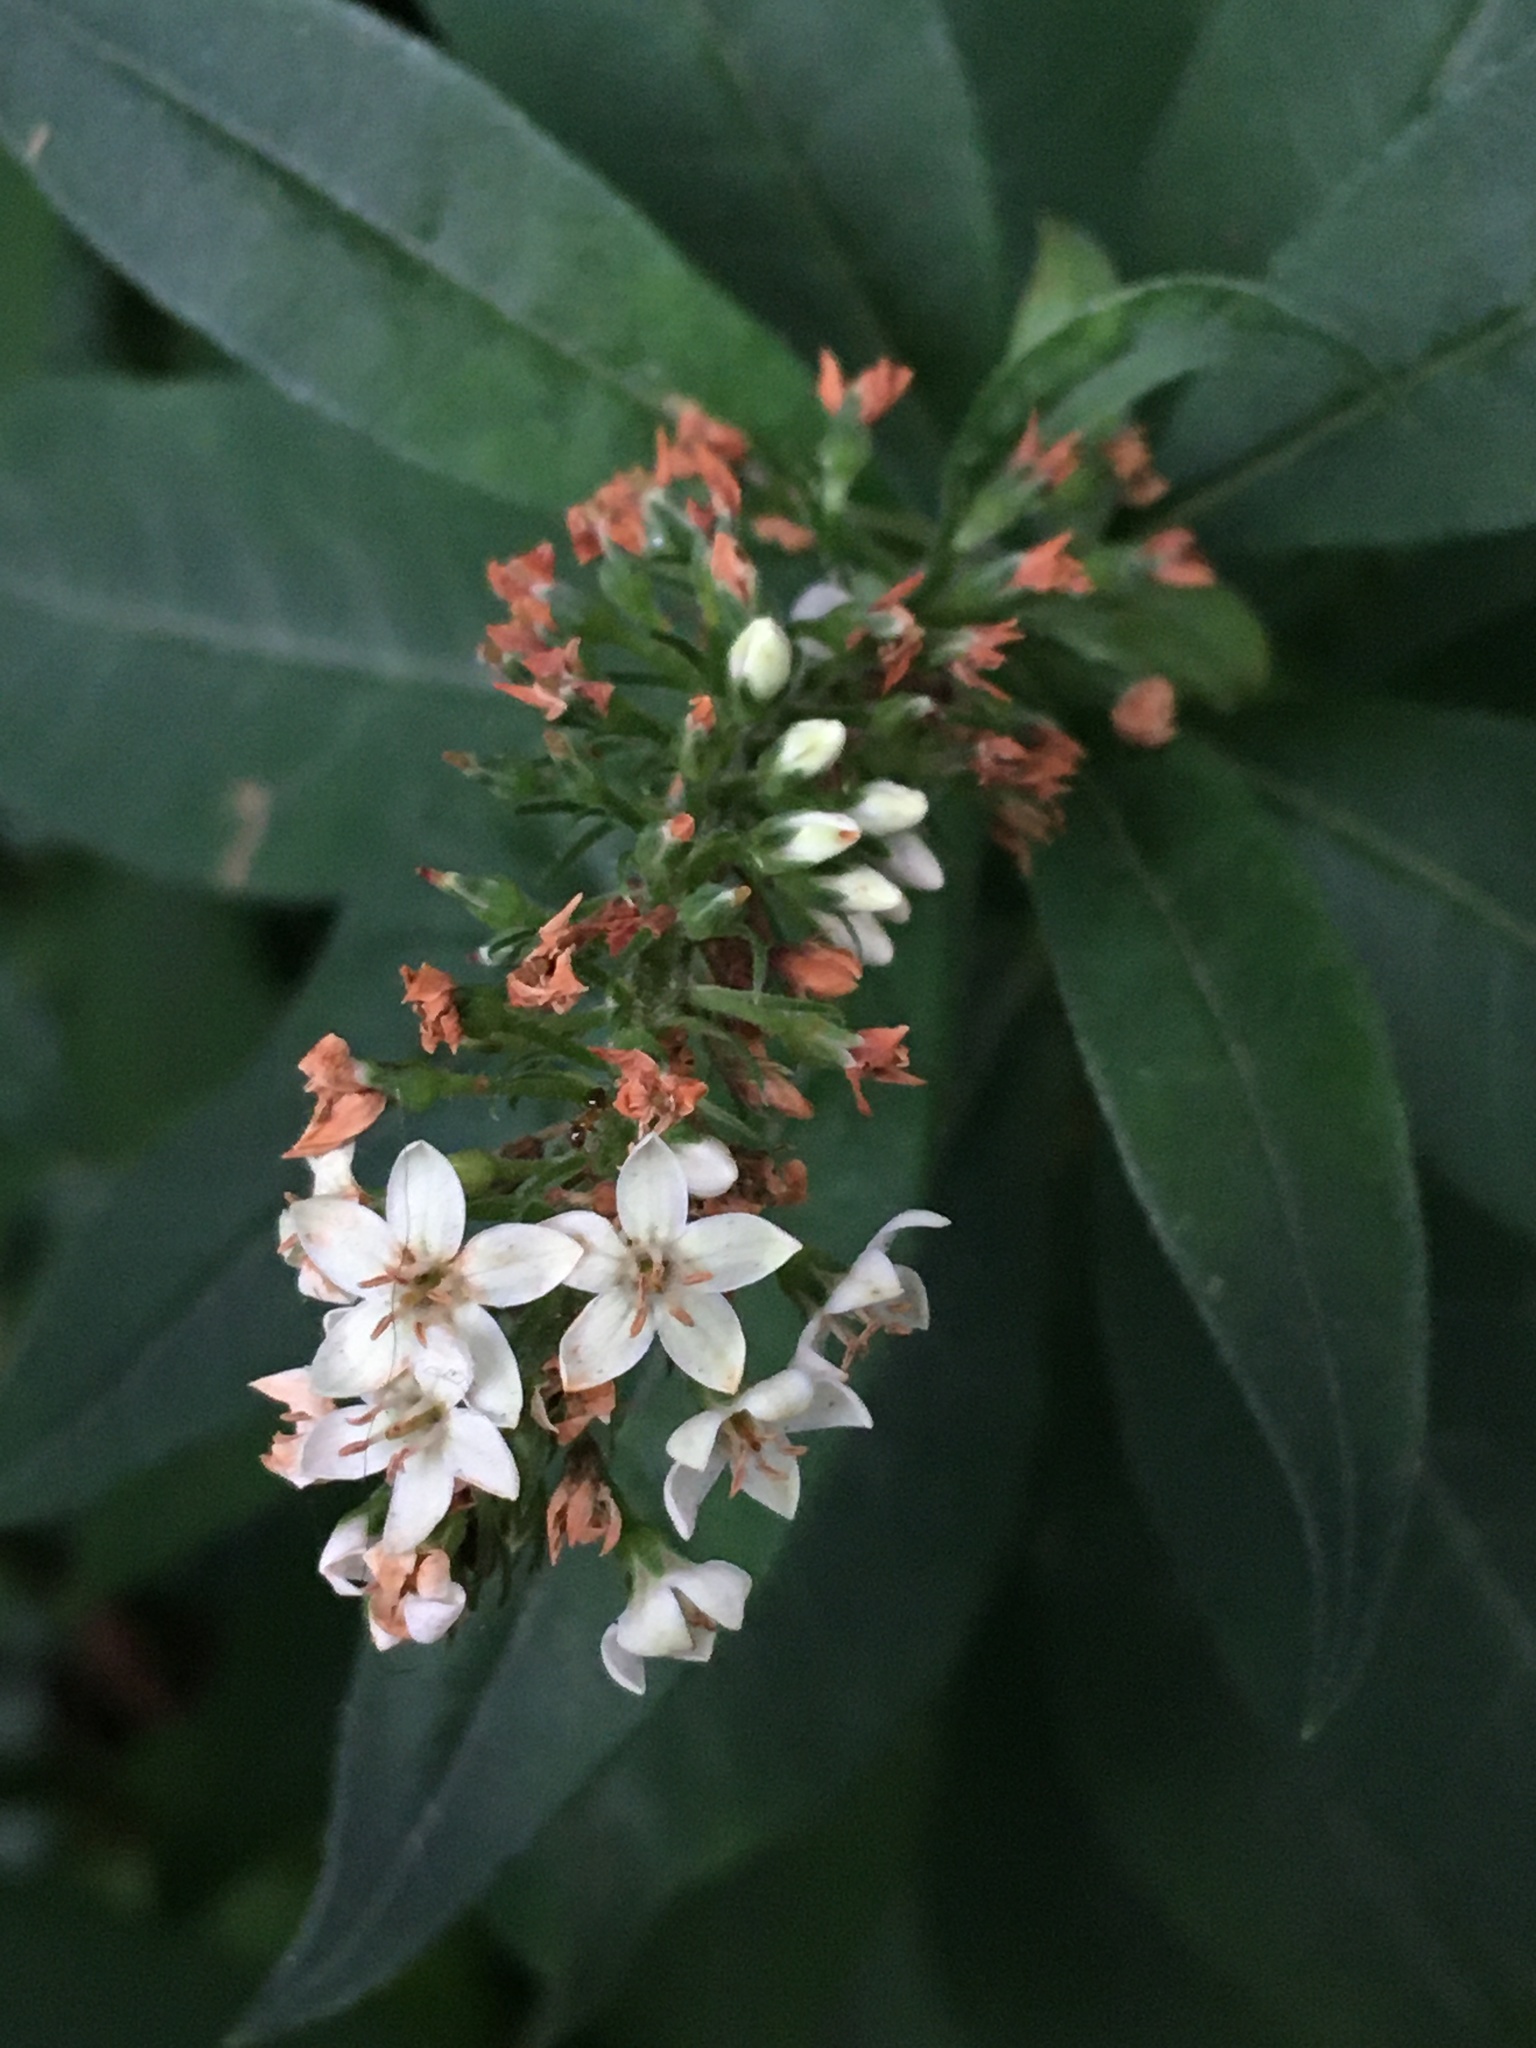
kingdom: Plantae
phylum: Tracheophyta
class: Magnoliopsida
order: Ericales
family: Primulaceae
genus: Lysimachia
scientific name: Lysimachia clethroides
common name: Gooseneck loosestrife
